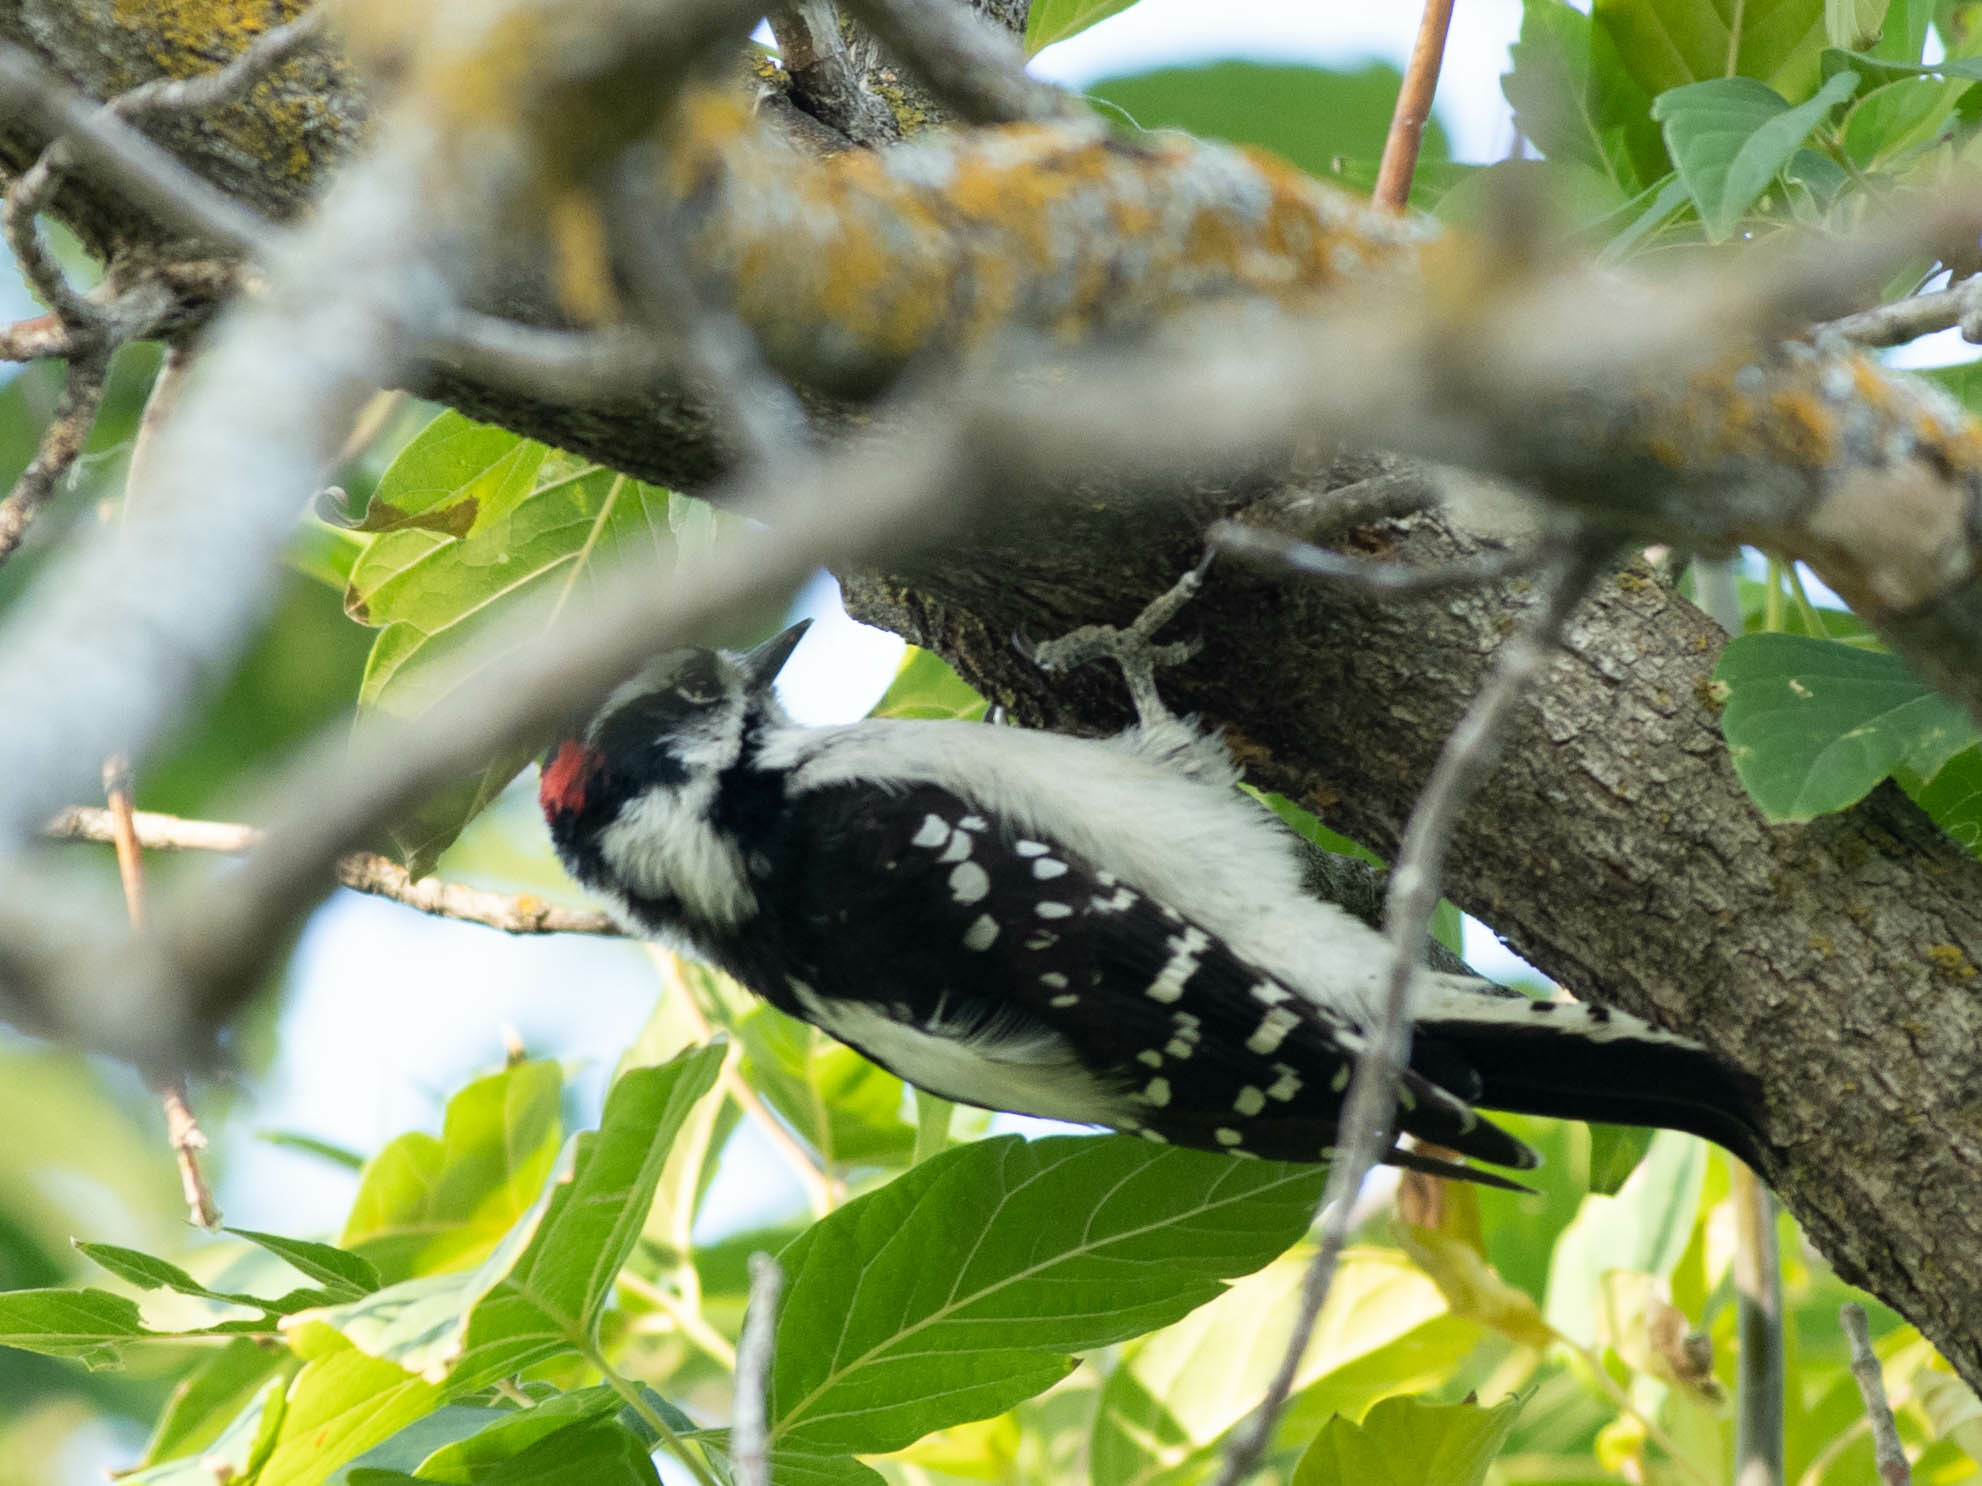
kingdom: Animalia
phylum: Chordata
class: Aves
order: Piciformes
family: Picidae
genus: Dryobates
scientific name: Dryobates pubescens
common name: Downy woodpecker
